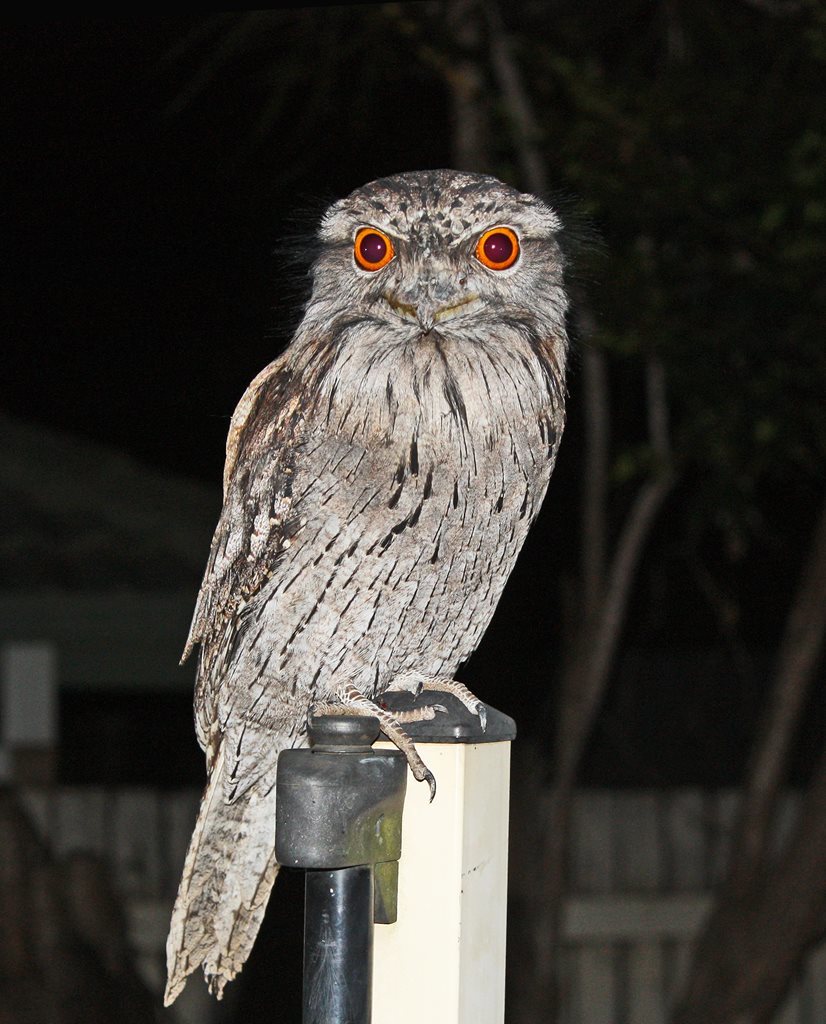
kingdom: Animalia
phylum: Chordata
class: Aves
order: Caprimulgiformes
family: Podargidae
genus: Podargus
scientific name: Podargus strigoides
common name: Tawny frogmouth
